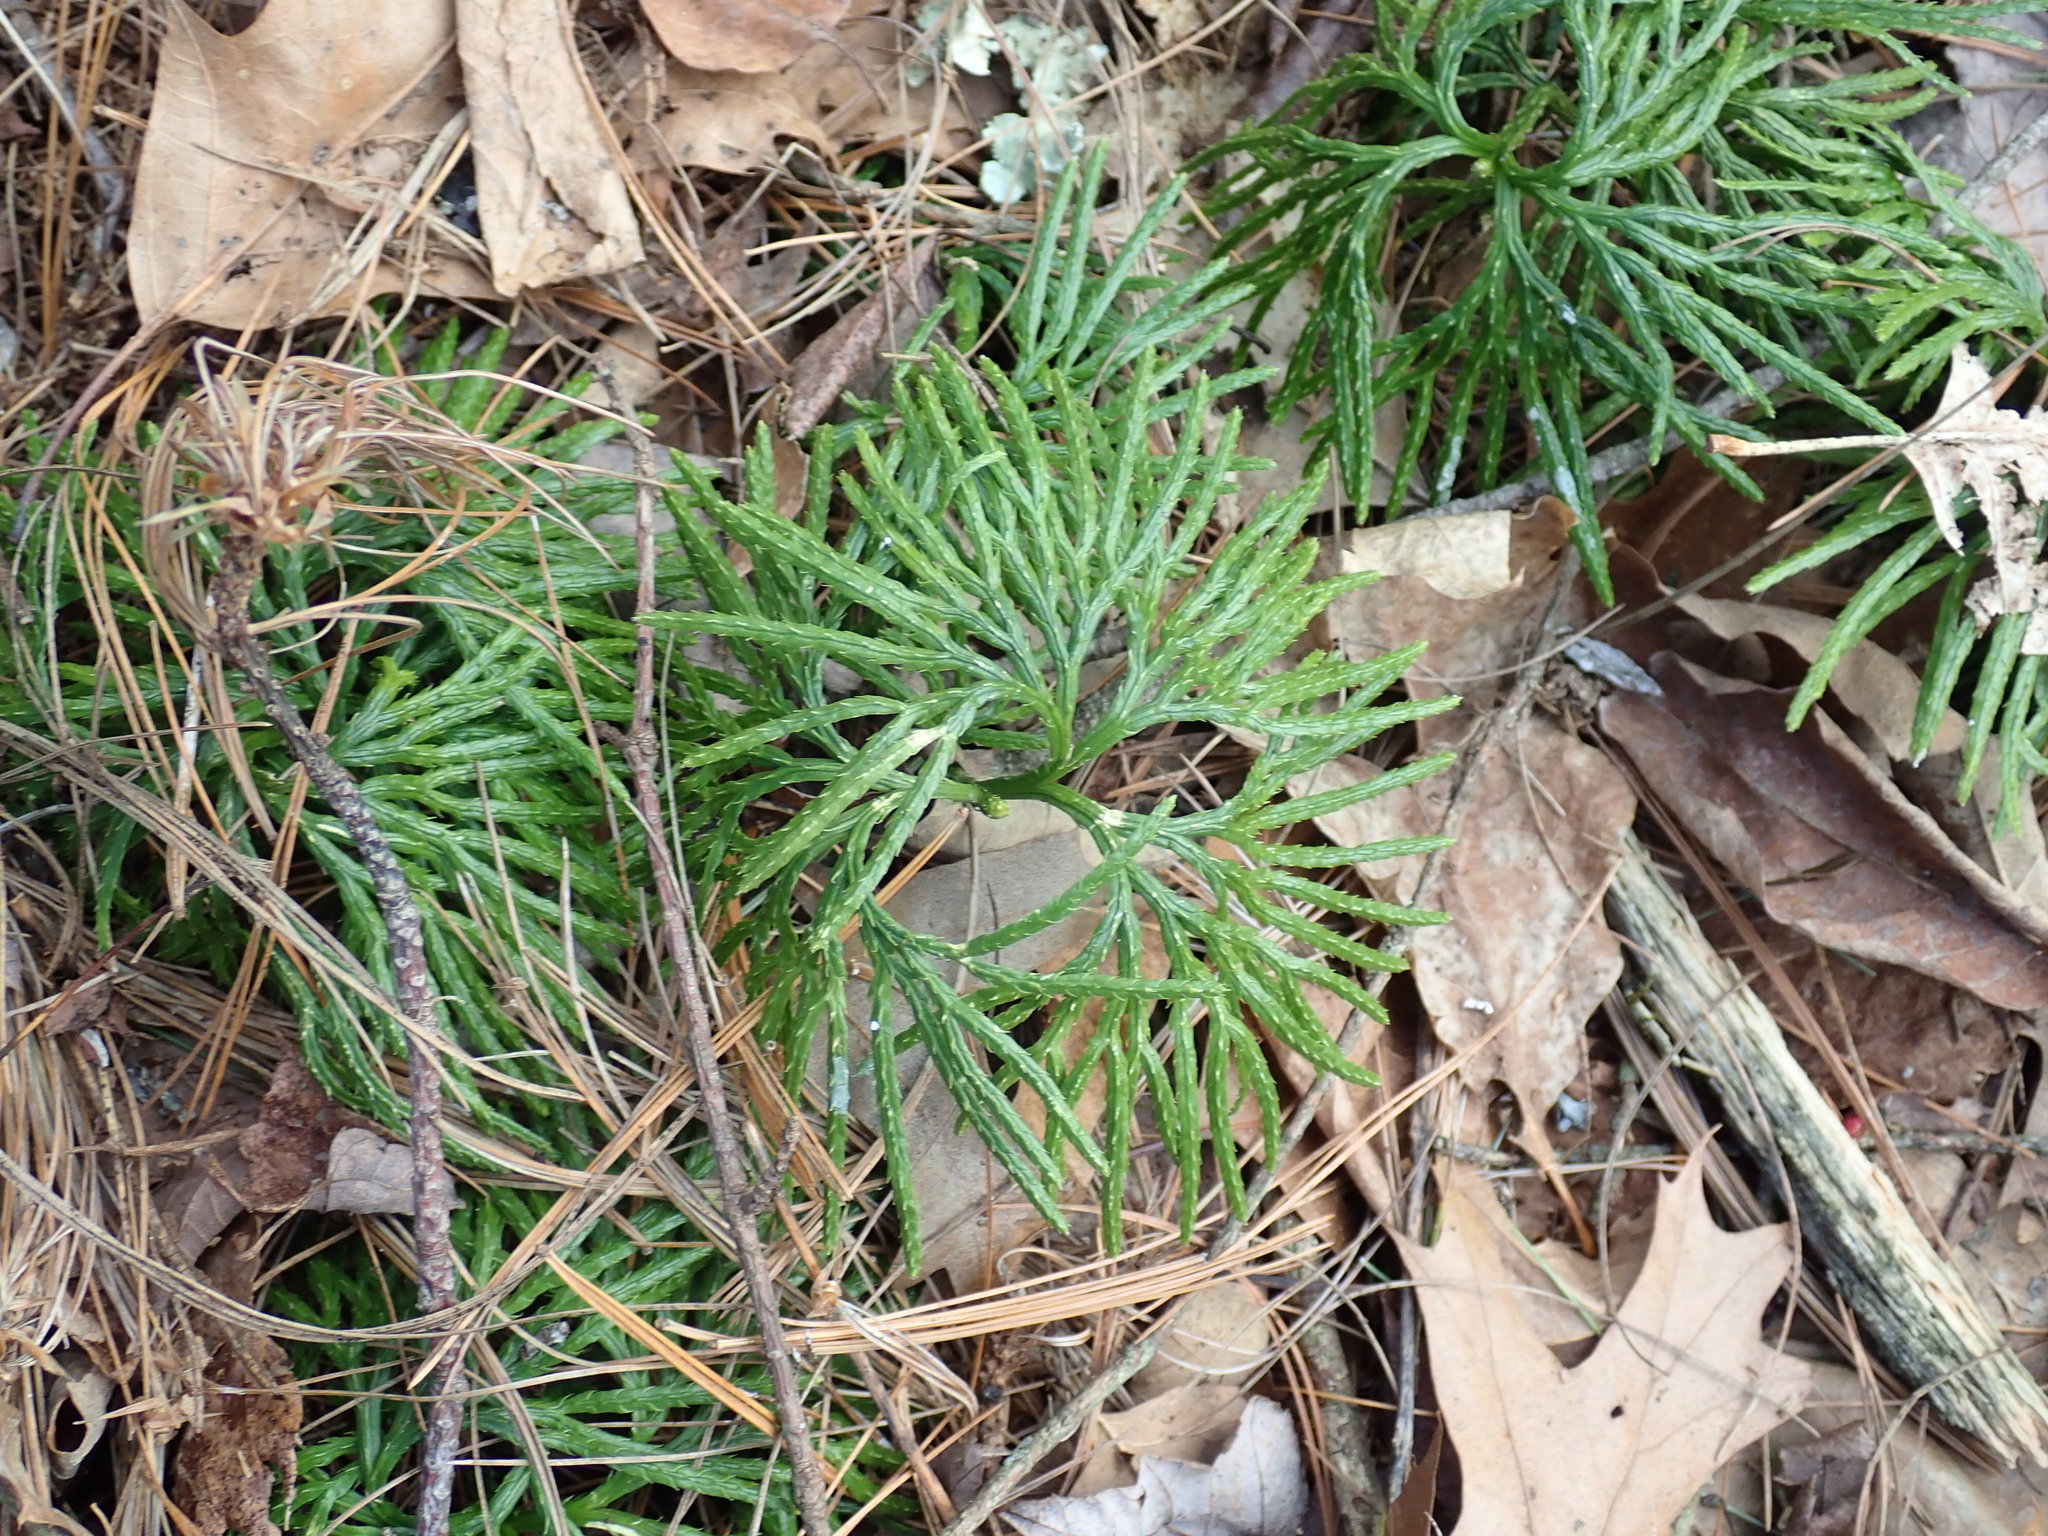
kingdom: Plantae
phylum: Tracheophyta
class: Lycopodiopsida
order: Lycopodiales
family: Lycopodiaceae
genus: Diphasiastrum
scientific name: Diphasiastrum digitatum
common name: Southern running-pine
